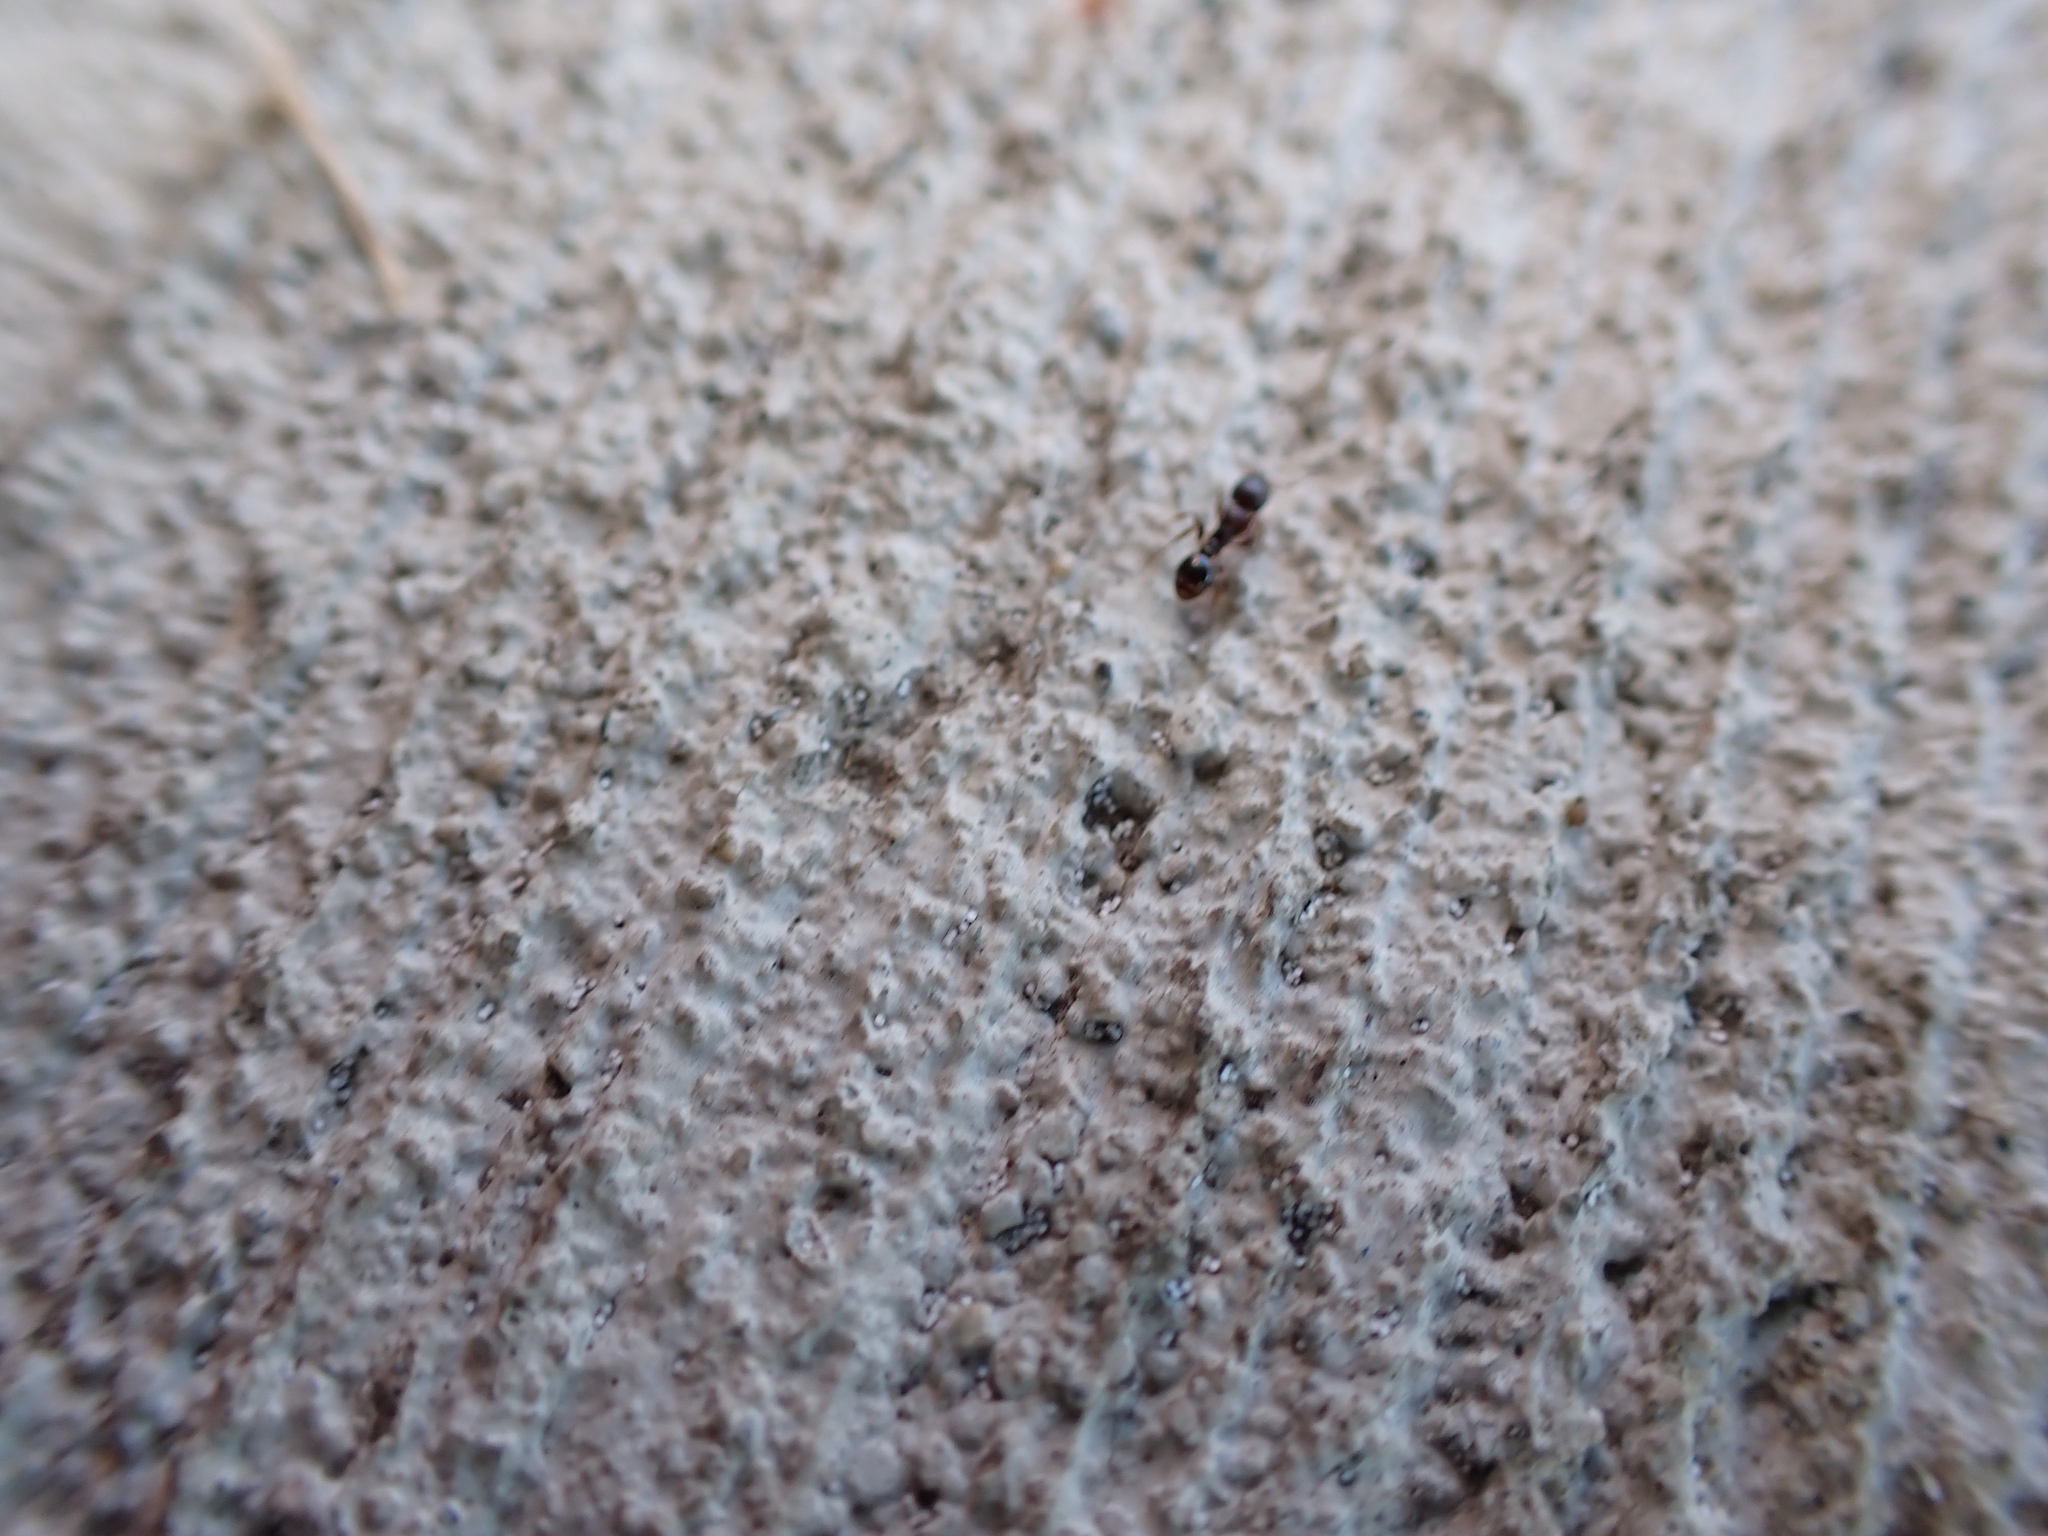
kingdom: Animalia
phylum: Arthropoda
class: Insecta
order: Hymenoptera
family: Formicidae
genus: Tetramorium
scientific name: Tetramorium immigrans
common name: Pavement ant
